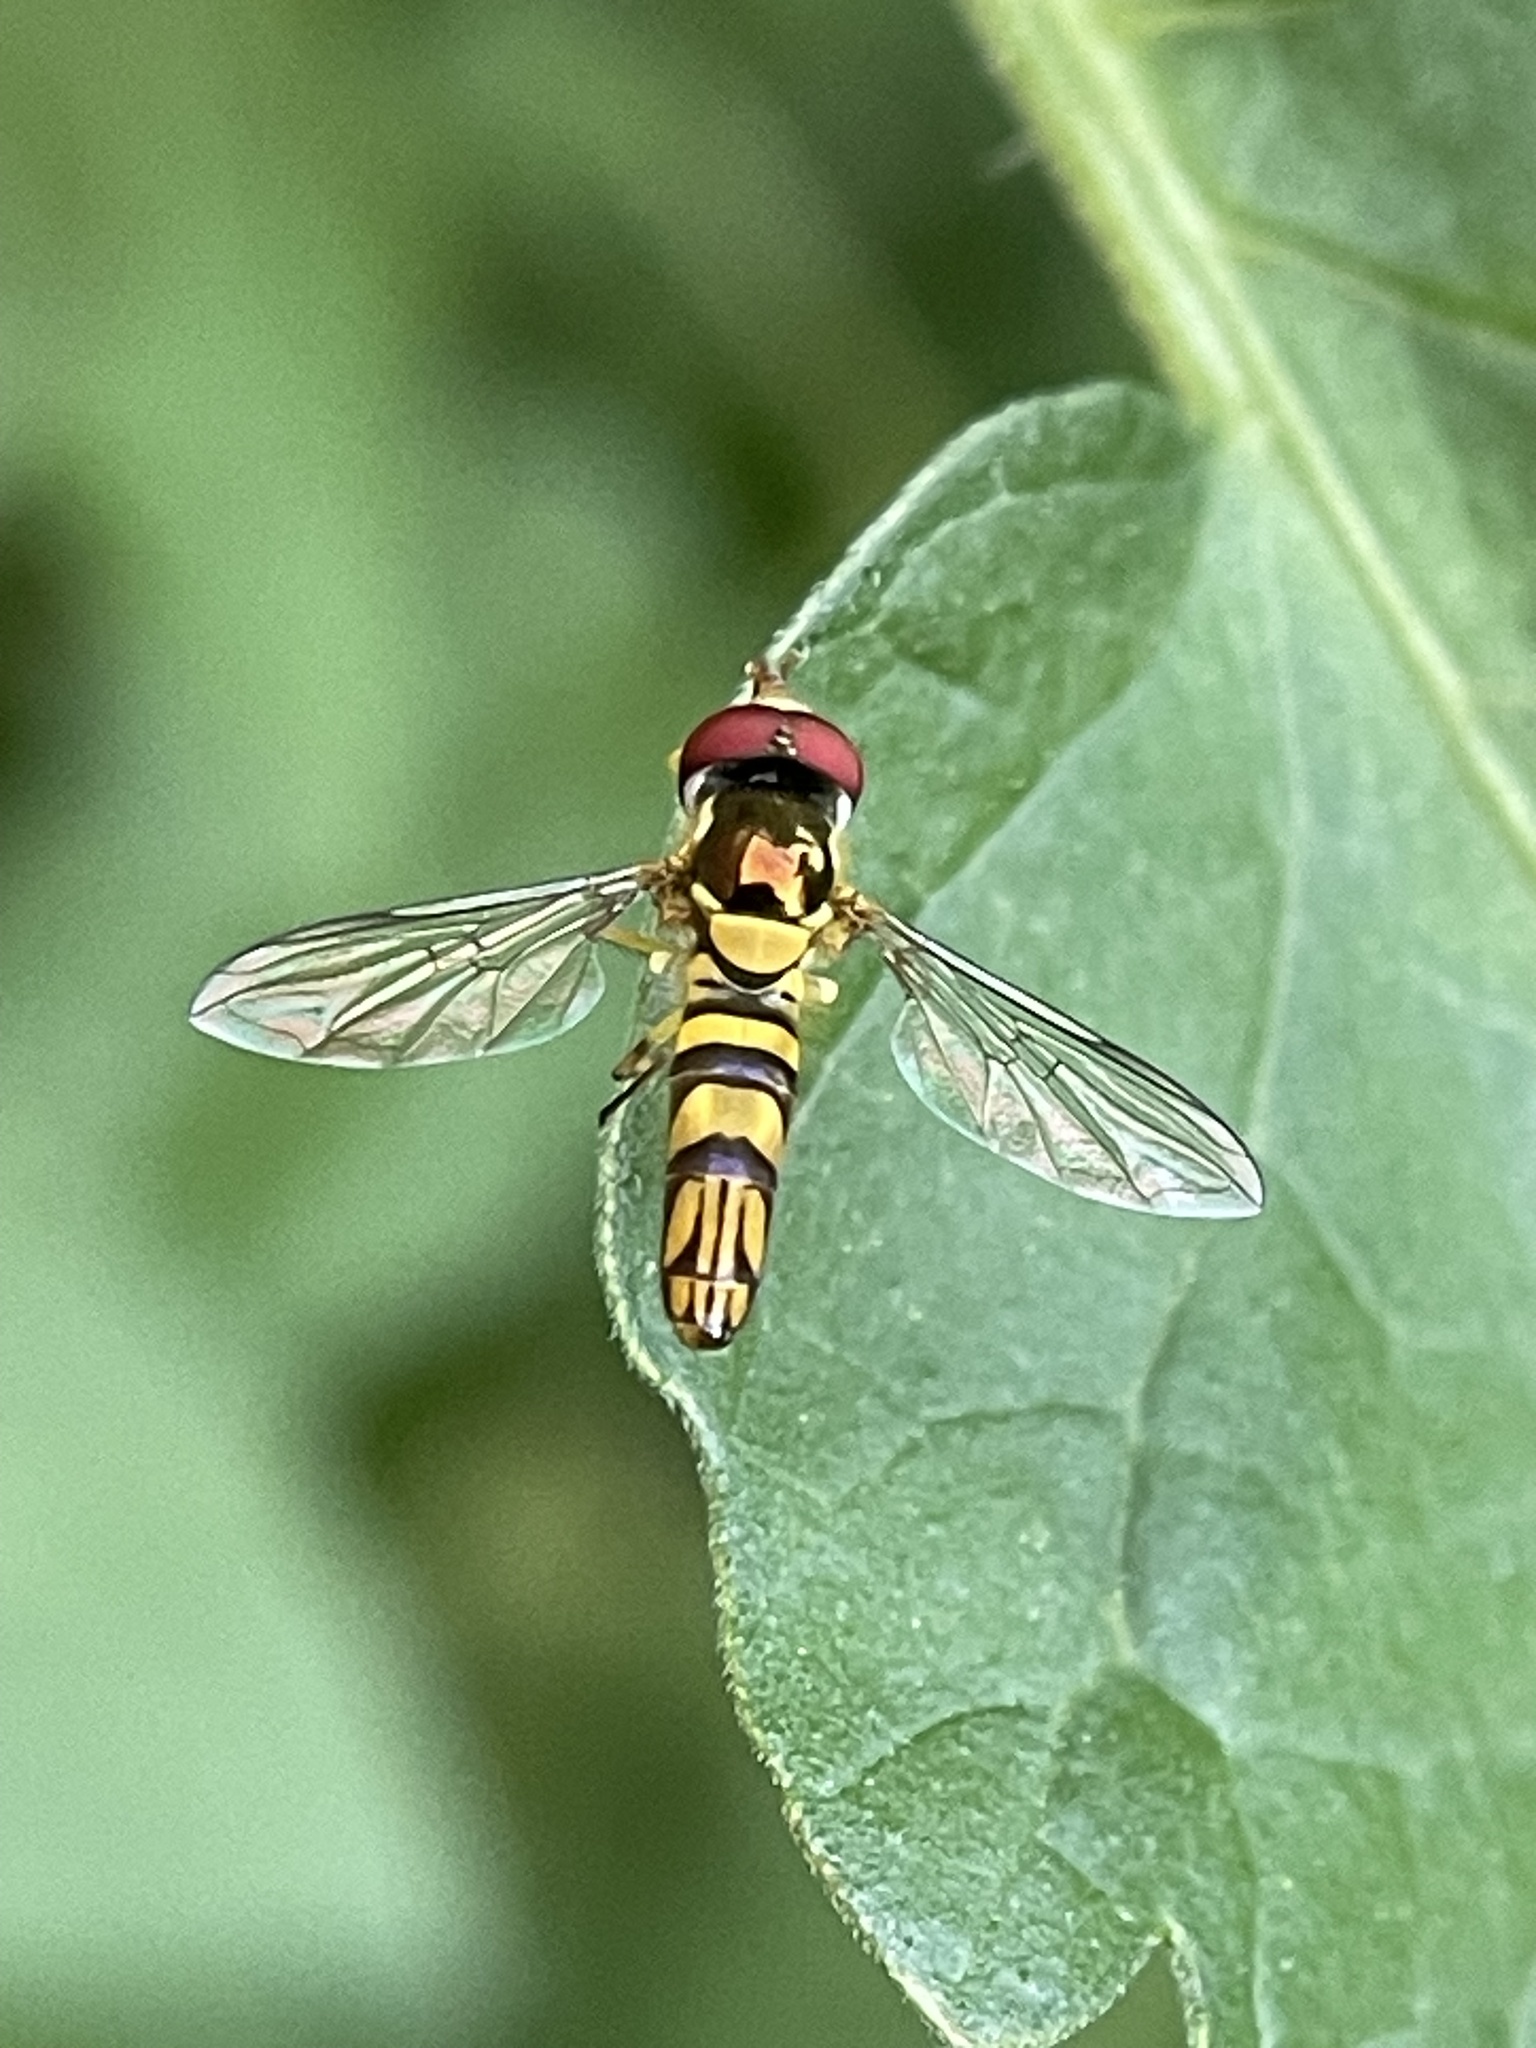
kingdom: Animalia
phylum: Arthropoda
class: Insecta
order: Diptera
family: Syrphidae
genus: Allograpta
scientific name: Allograpta obliqua
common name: Common oblique syrphid
